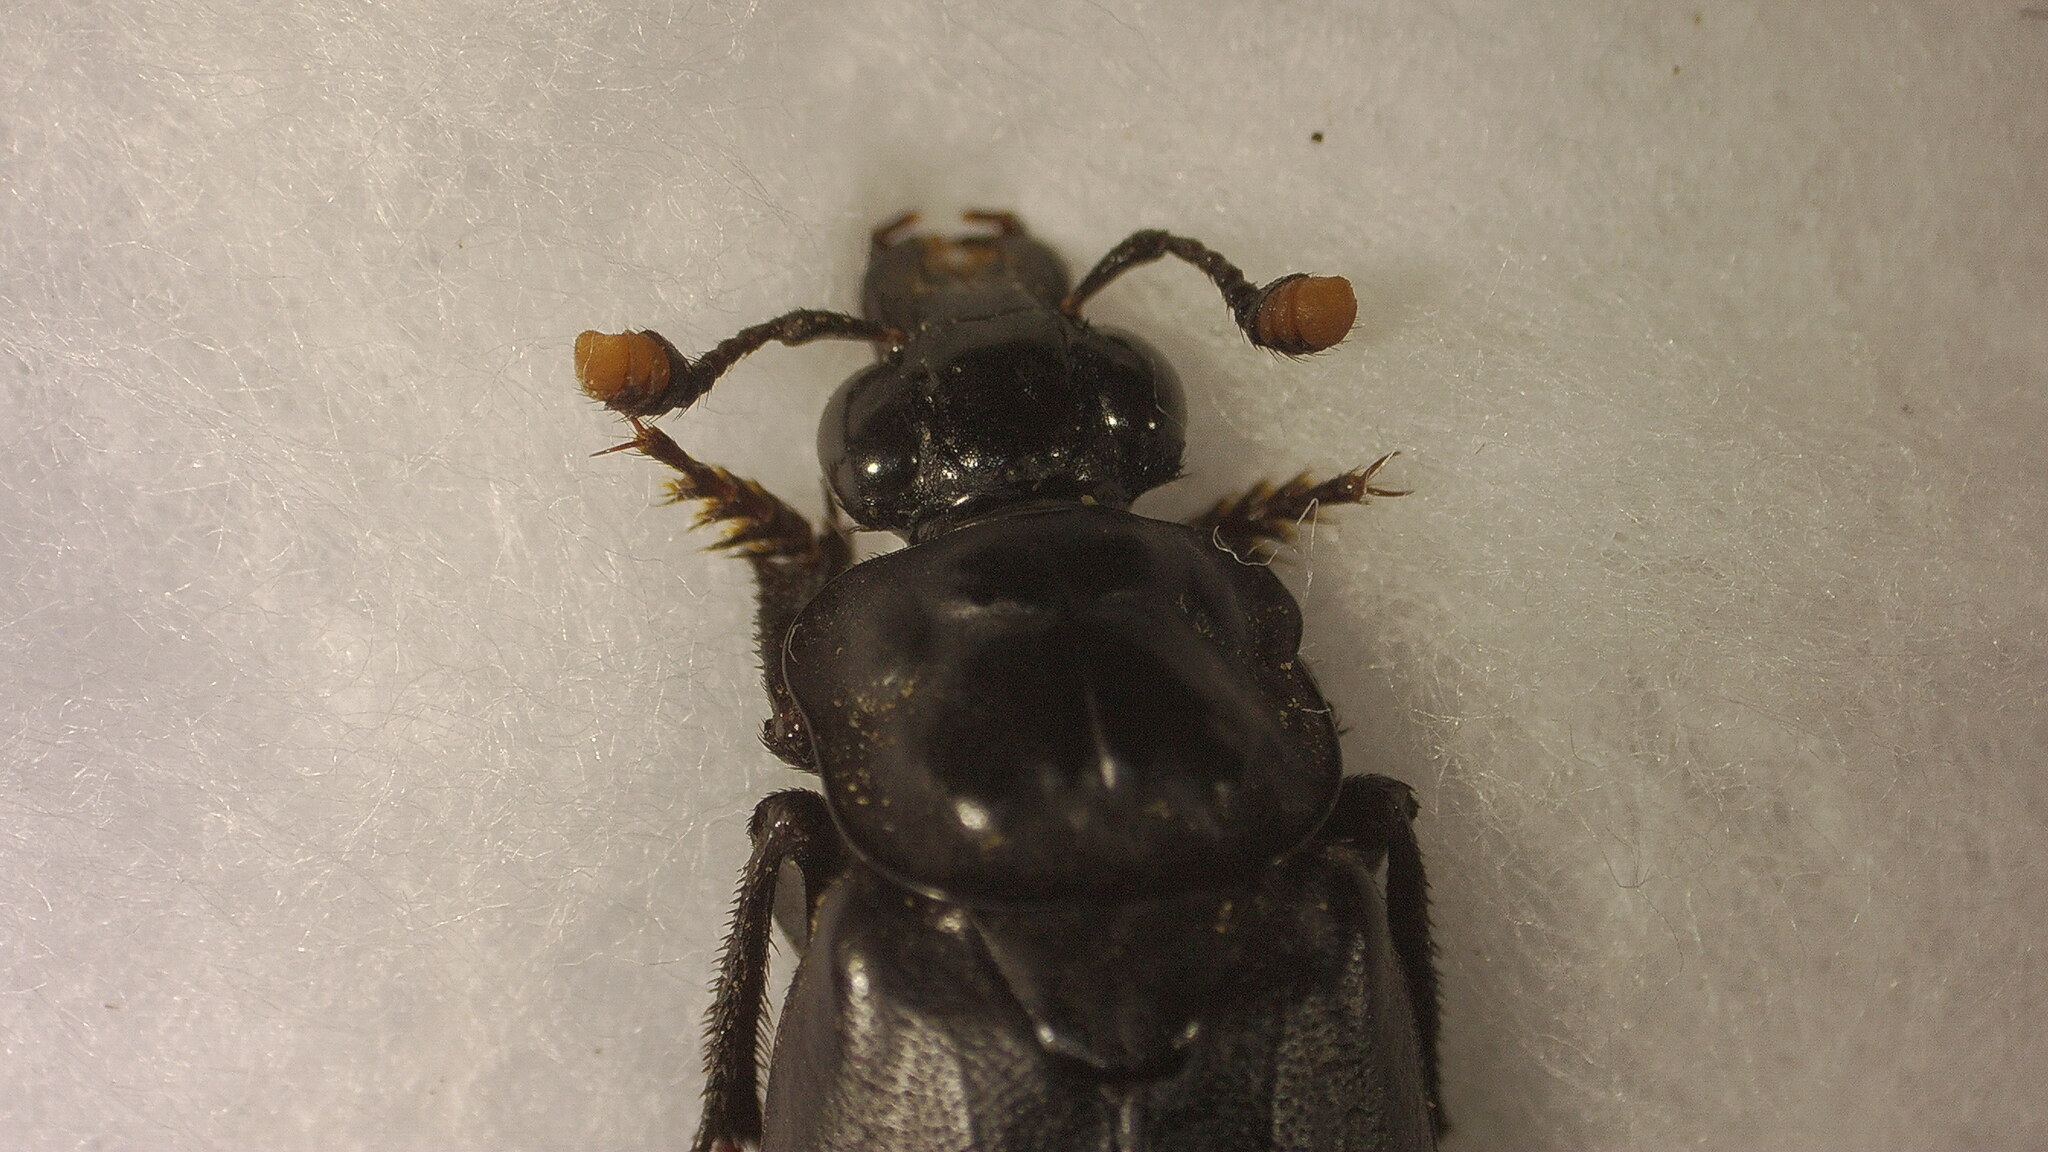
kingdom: Animalia
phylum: Arthropoda
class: Insecta
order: Coleoptera
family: Staphylinidae
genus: Nicrophorus
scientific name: Nicrophorus nigrita
